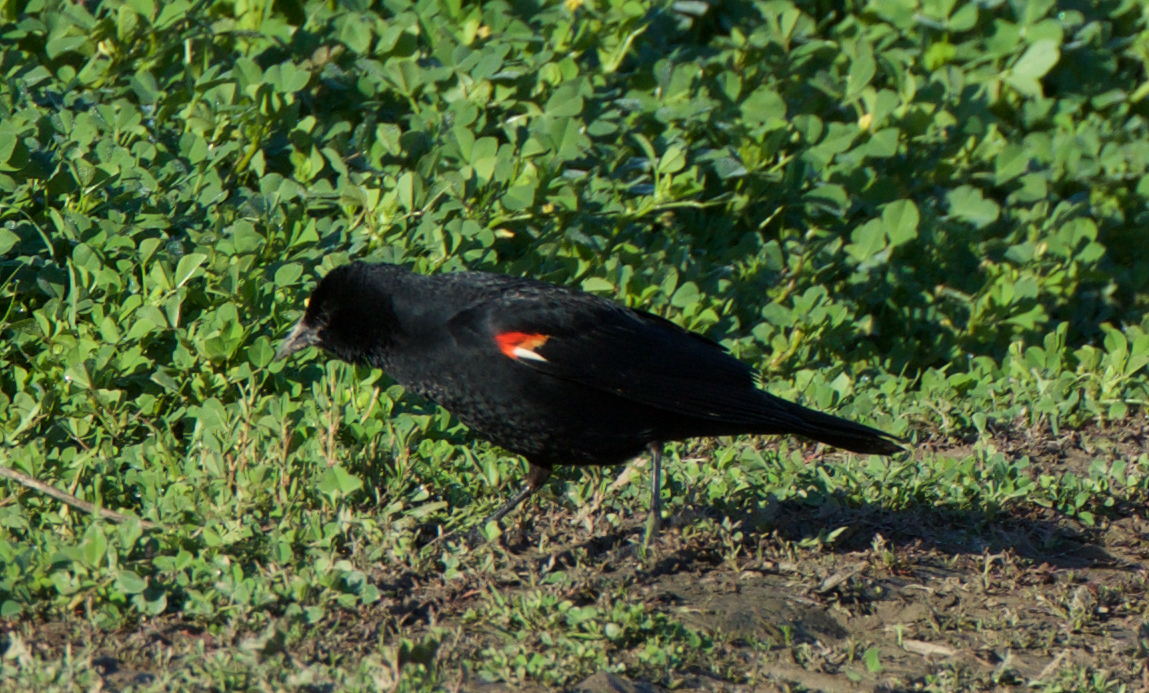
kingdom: Animalia
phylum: Chordata
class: Aves
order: Passeriformes
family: Icteridae
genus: Agelaius
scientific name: Agelaius tricolor
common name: Tricolored blackbird
